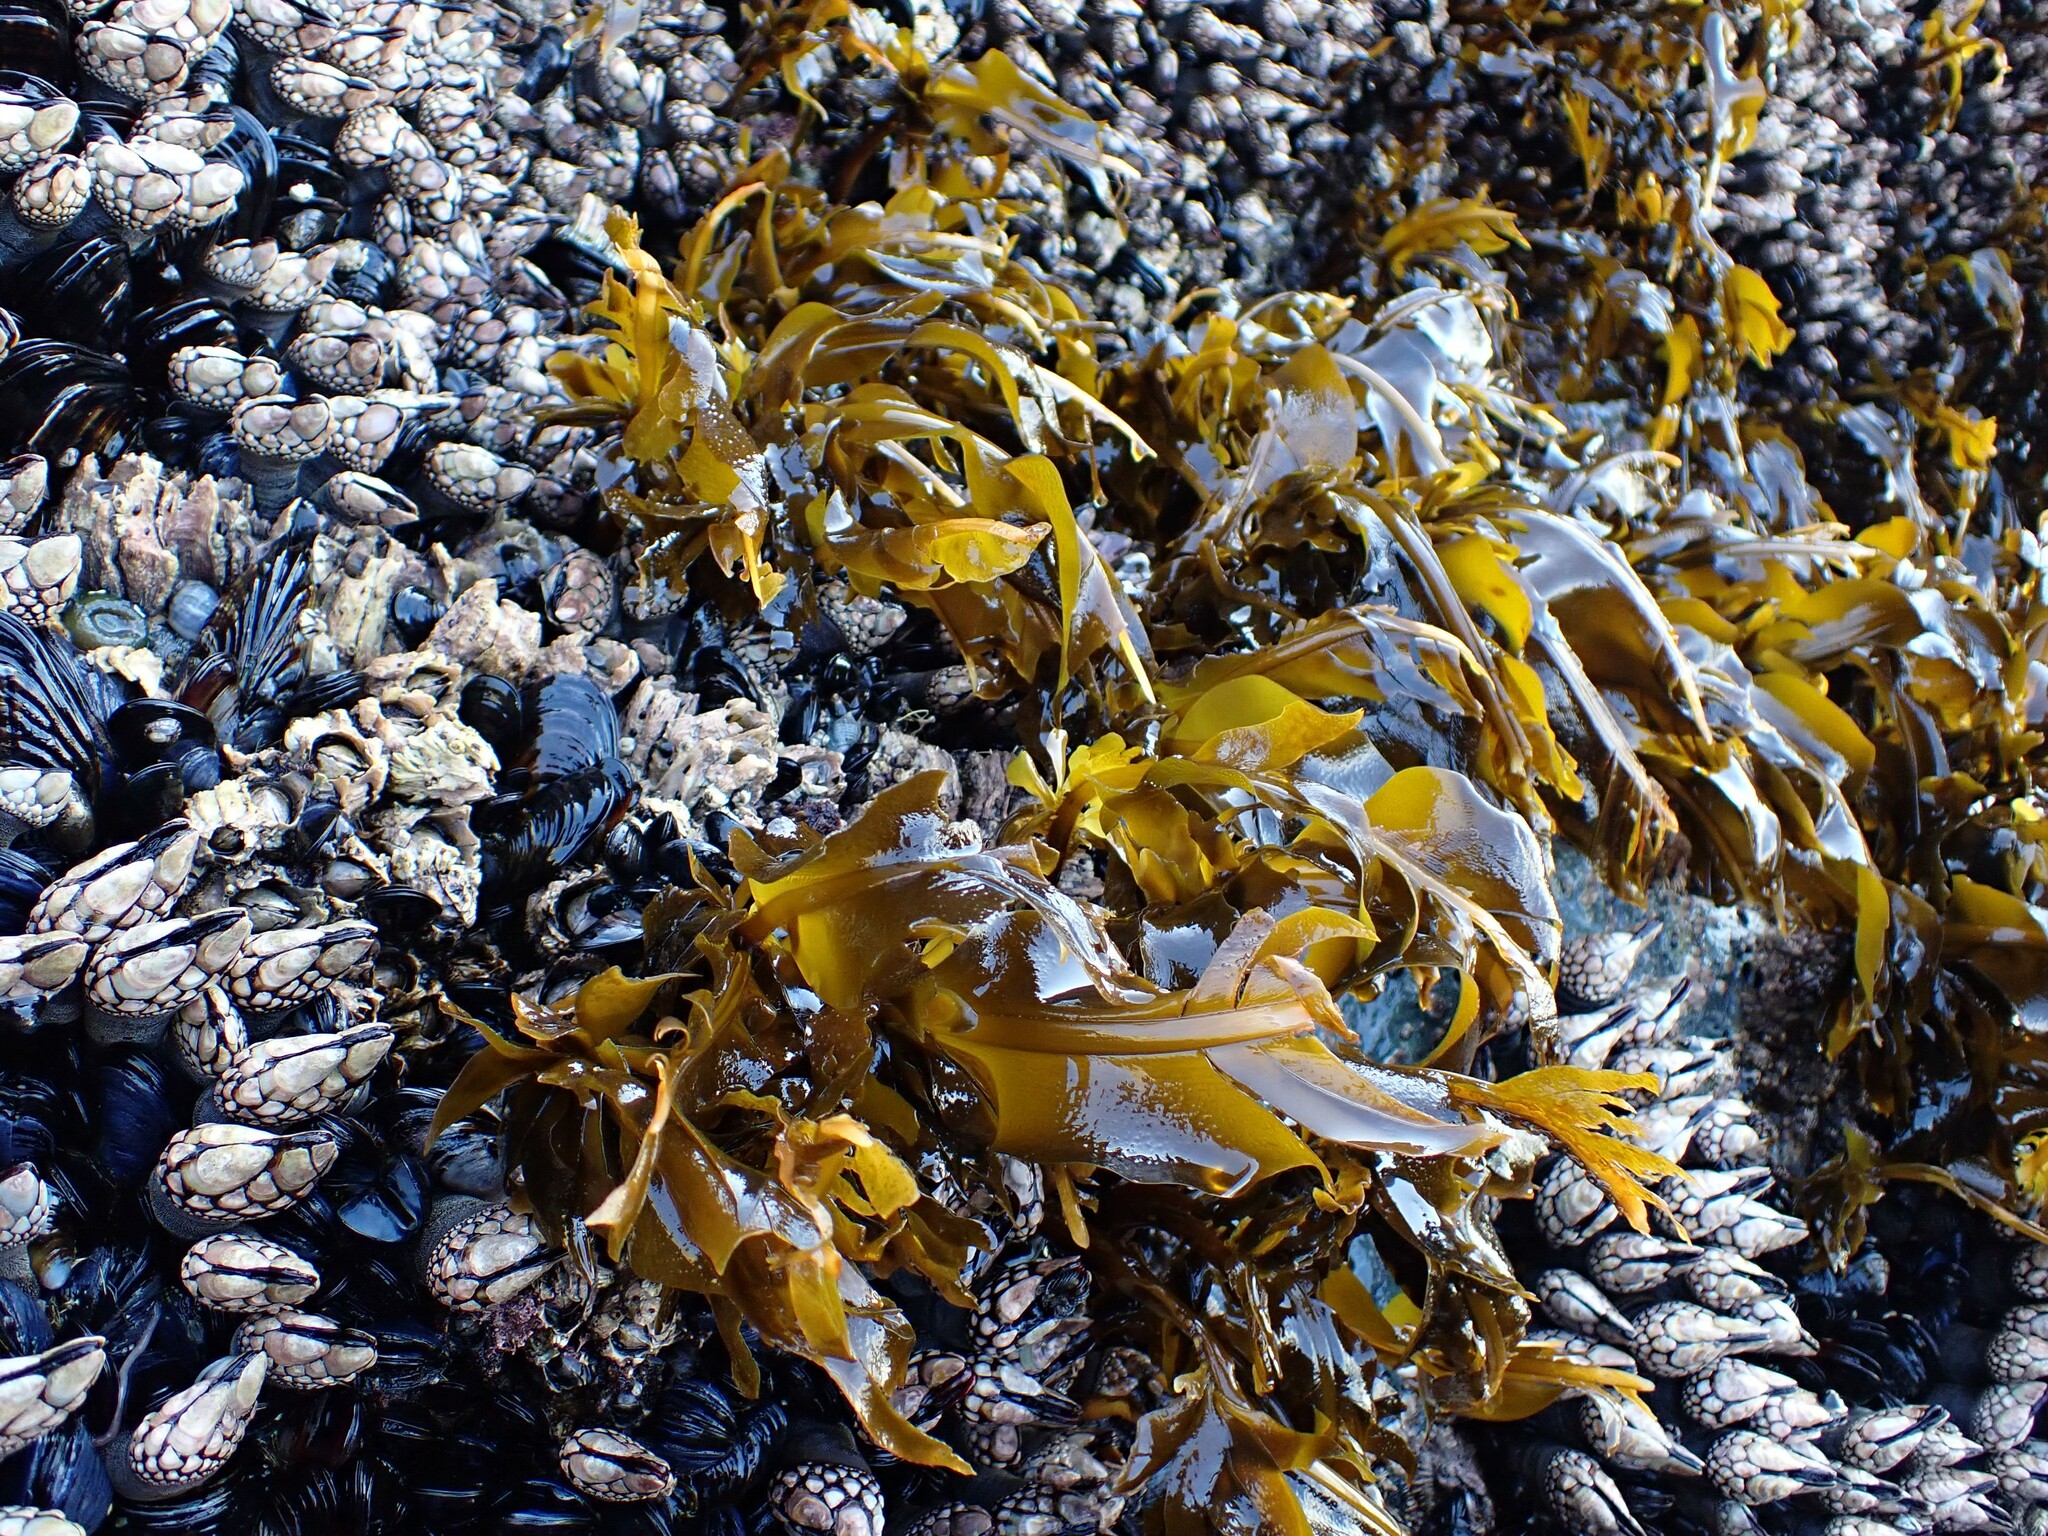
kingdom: Chromista
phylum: Ochrophyta
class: Phaeophyceae
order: Laminariales
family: Alariaceae
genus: Alaria
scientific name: Alaria marginata
